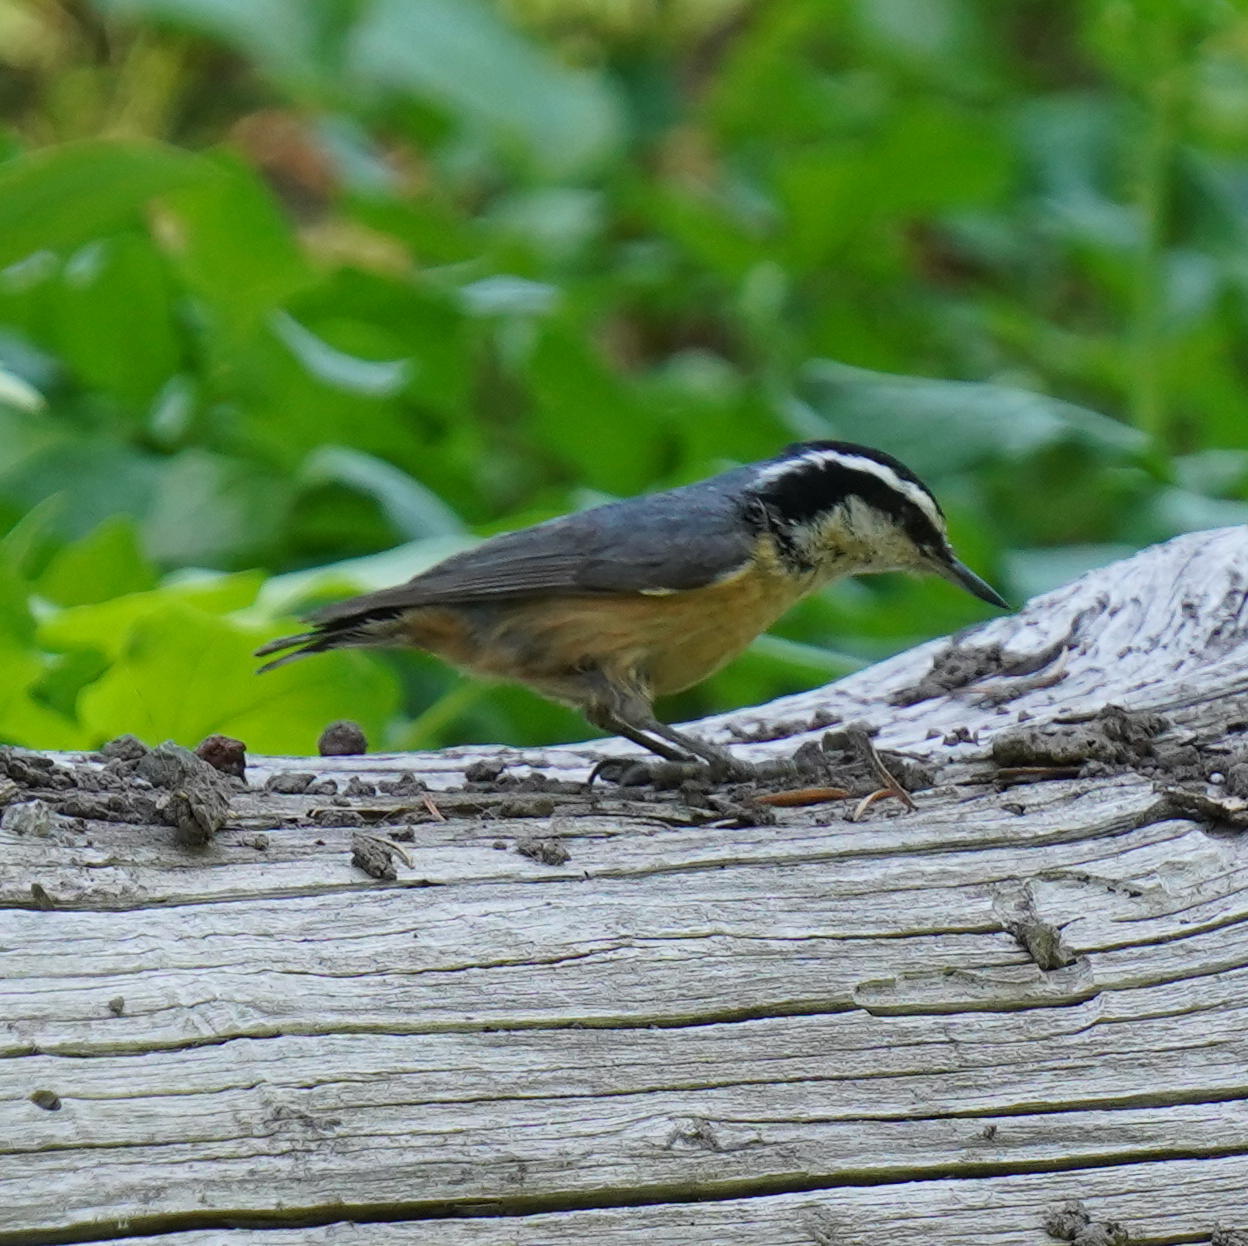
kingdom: Animalia
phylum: Chordata
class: Aves
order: Passeriformes
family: Sittidae
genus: Sitta
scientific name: Sitta canadensis
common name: Red-breasted nuthatch
